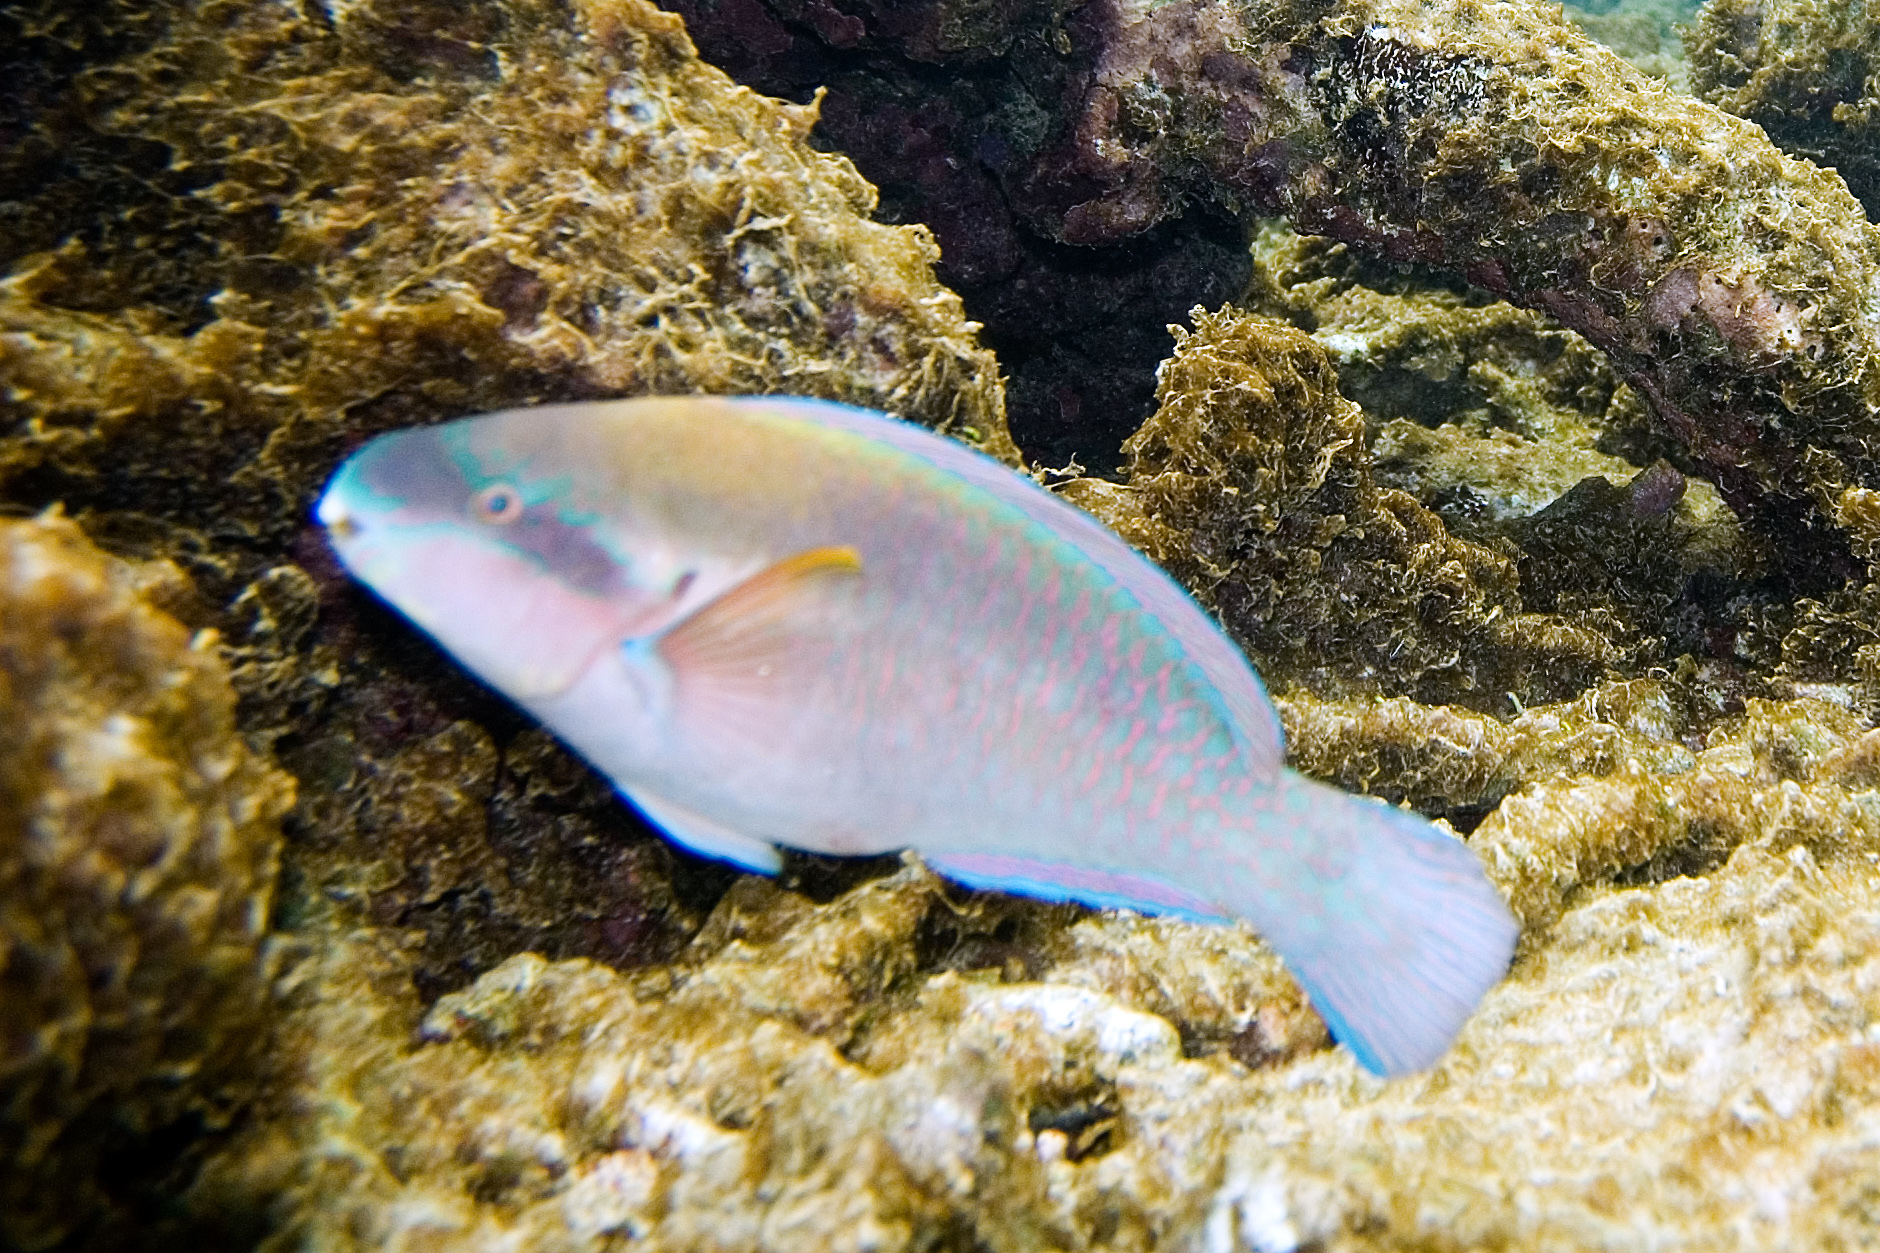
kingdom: Animalia
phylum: Chordata
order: Perciformes
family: Scaridae
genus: Scarus
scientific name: Scarus iseri
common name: Striped parrotfish
